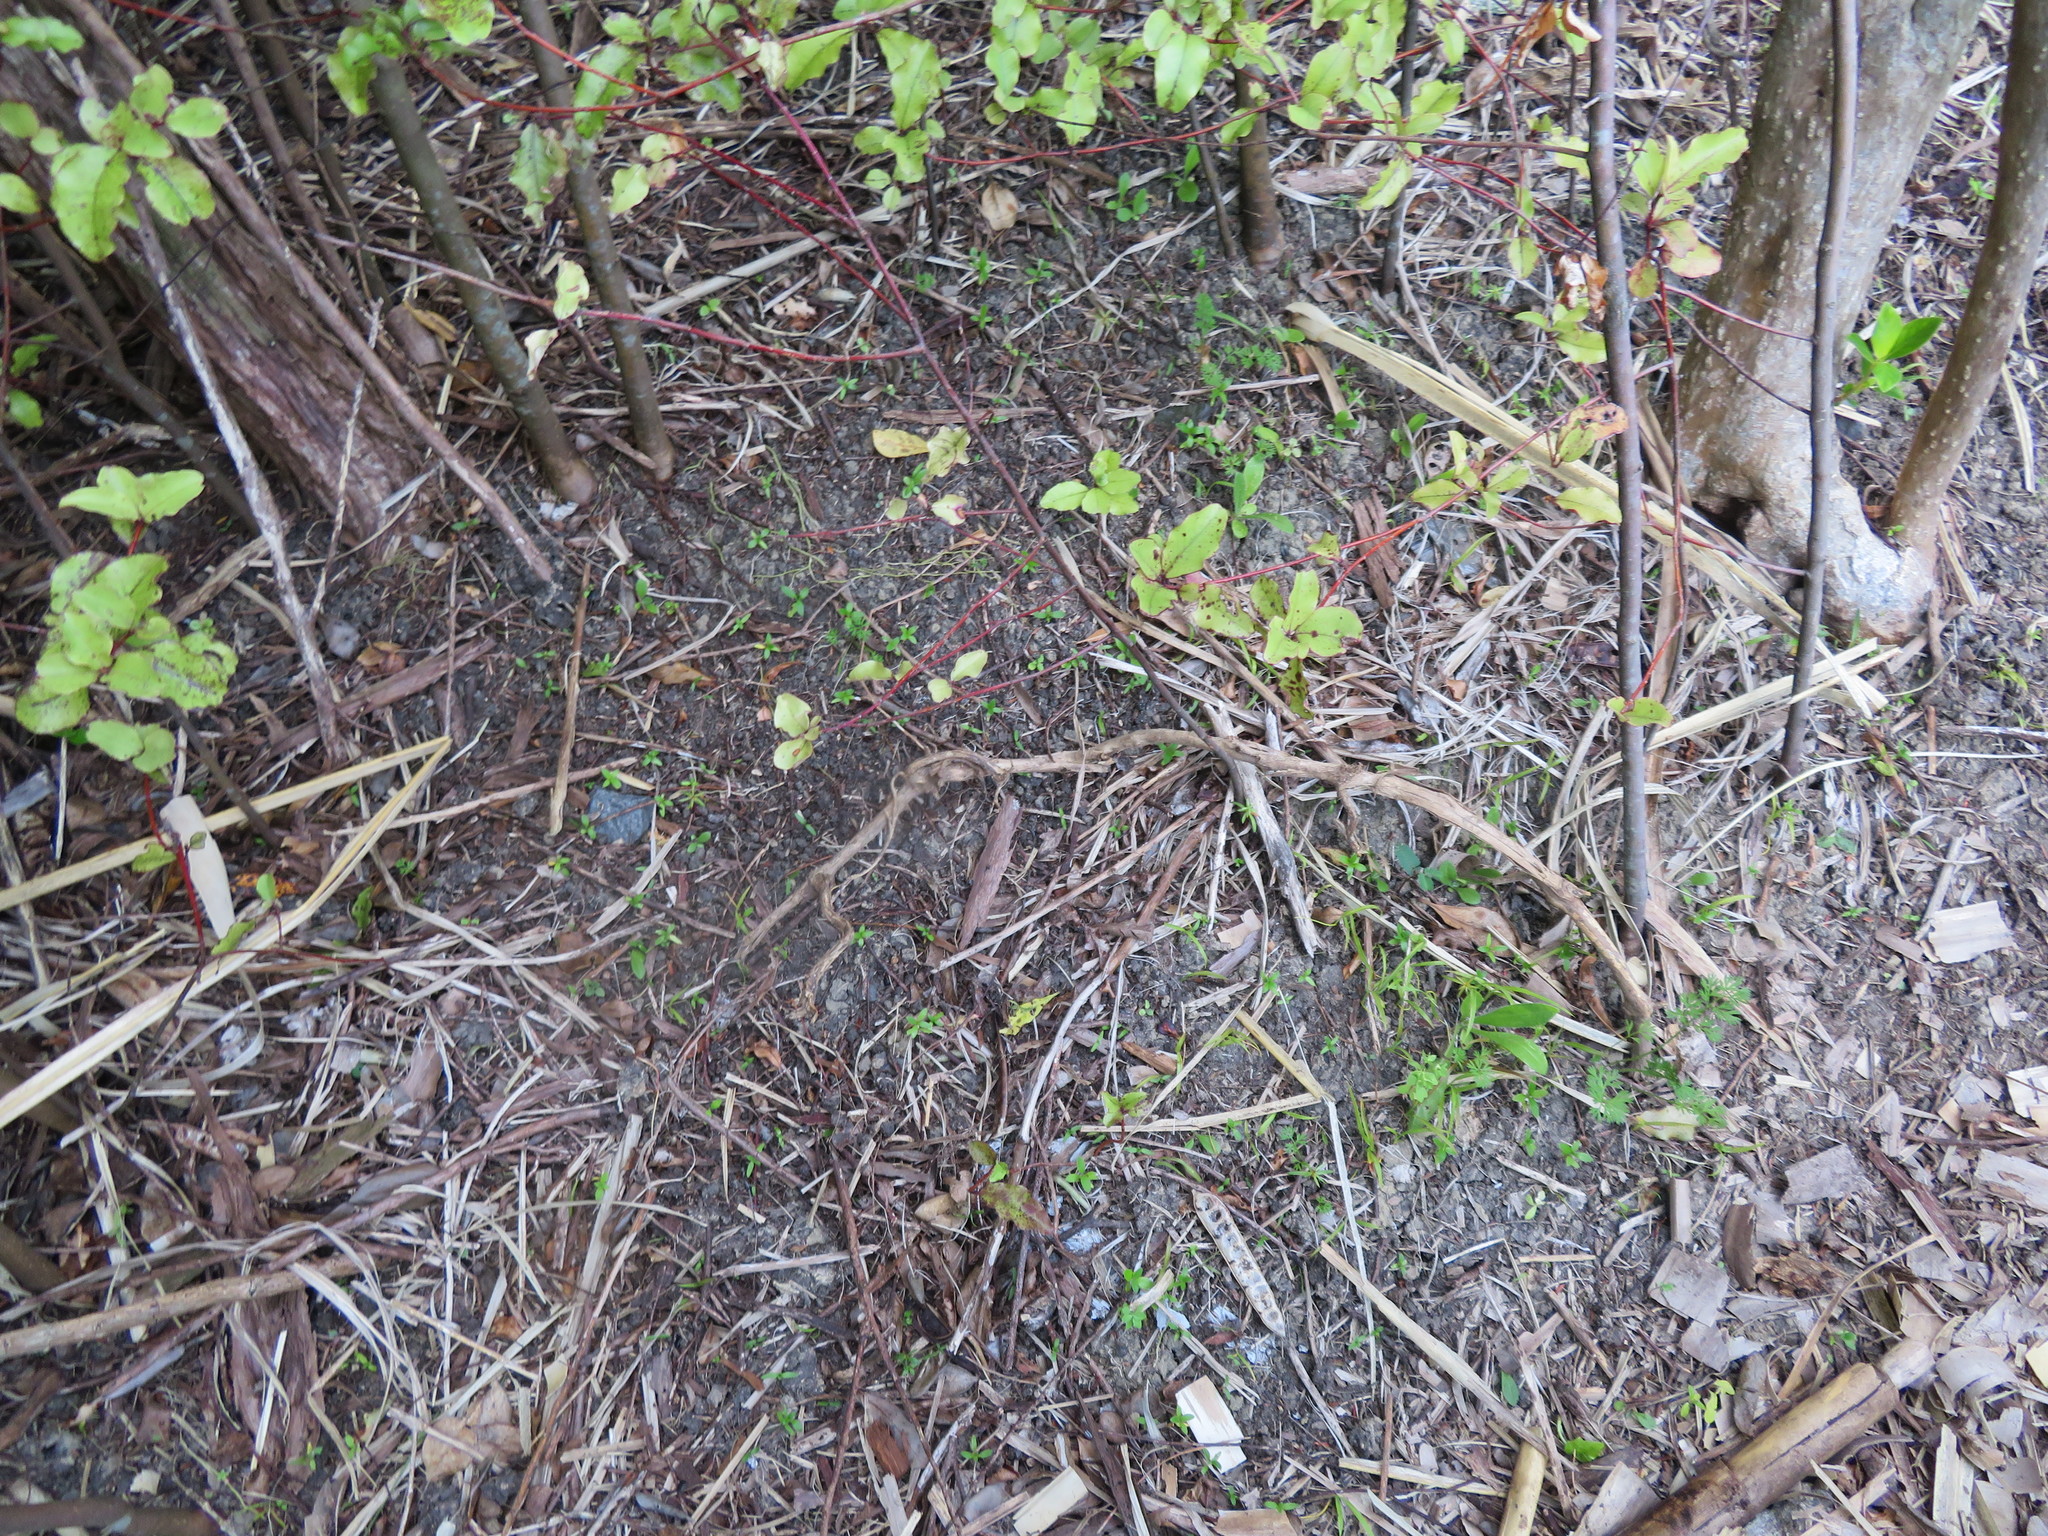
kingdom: Plantae
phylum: Tracheophyta
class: Magnoliopsida
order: Apiales
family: Apiaceae
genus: Daucus
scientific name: Daucus carota
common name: Wild carrot
